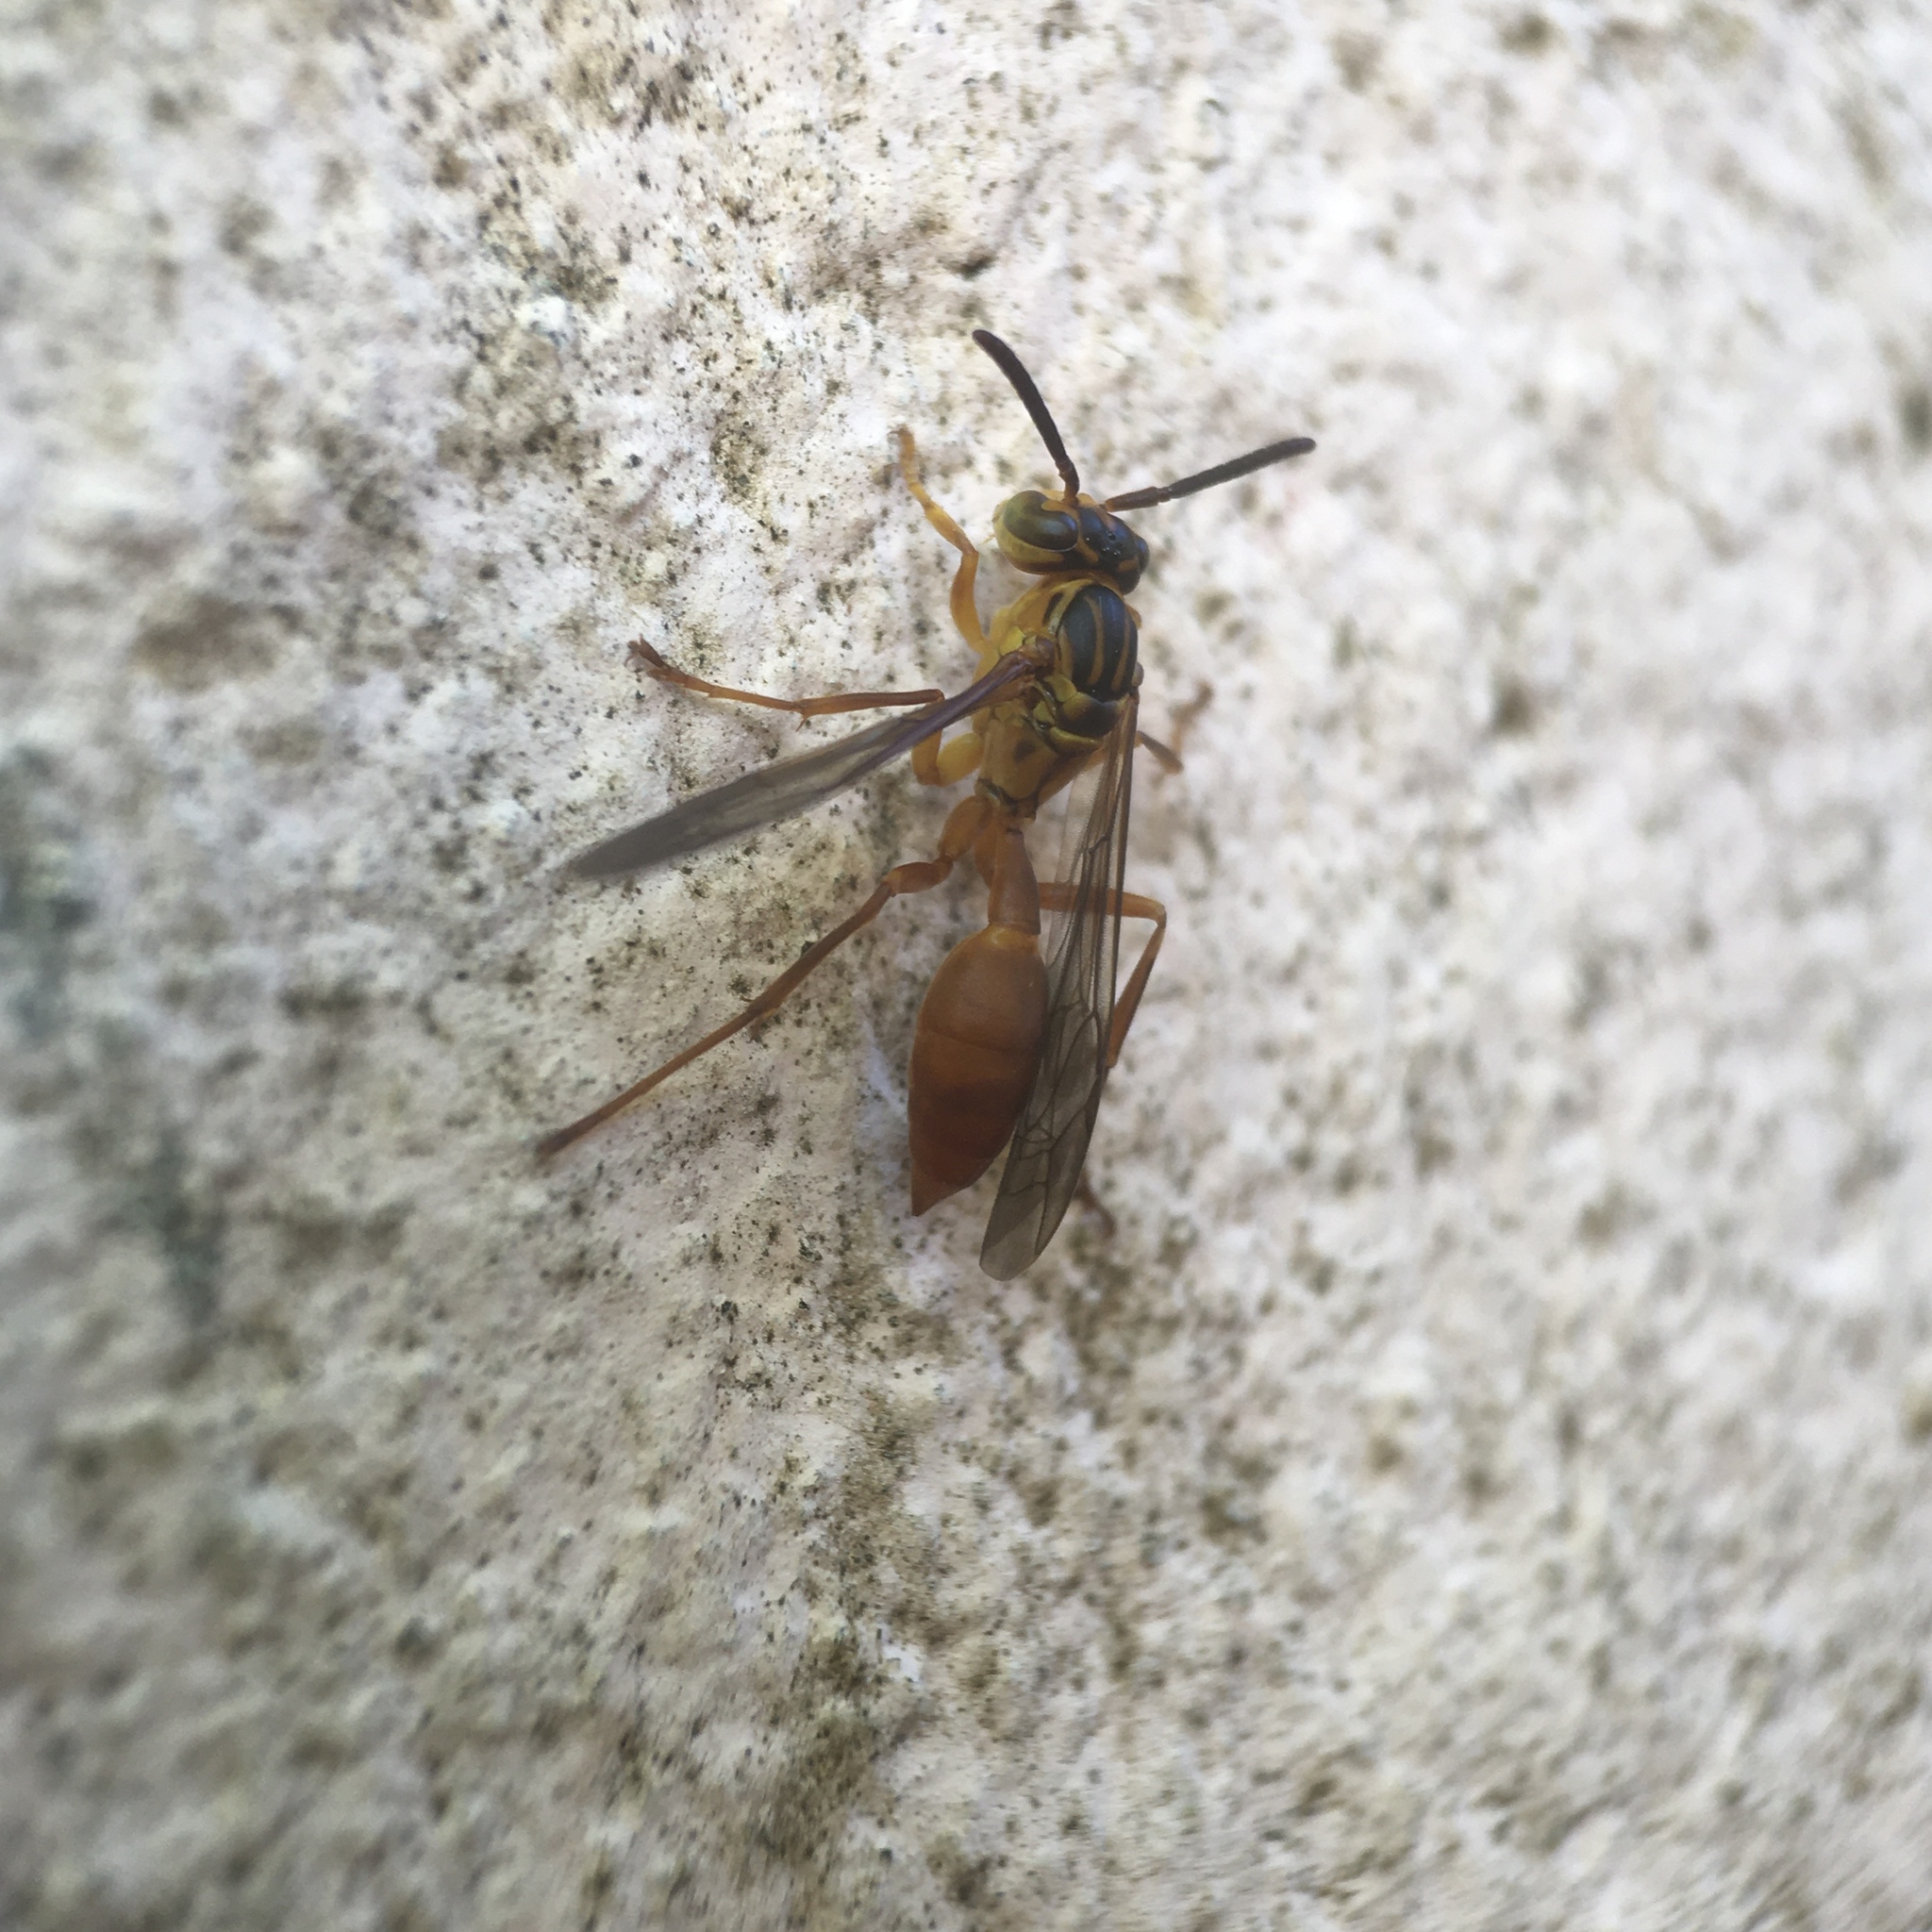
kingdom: Animalia
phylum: Arthropoda
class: Insecta
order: Hymenoptera
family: Vespidae
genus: Agelaia
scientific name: Agelaia centralis
